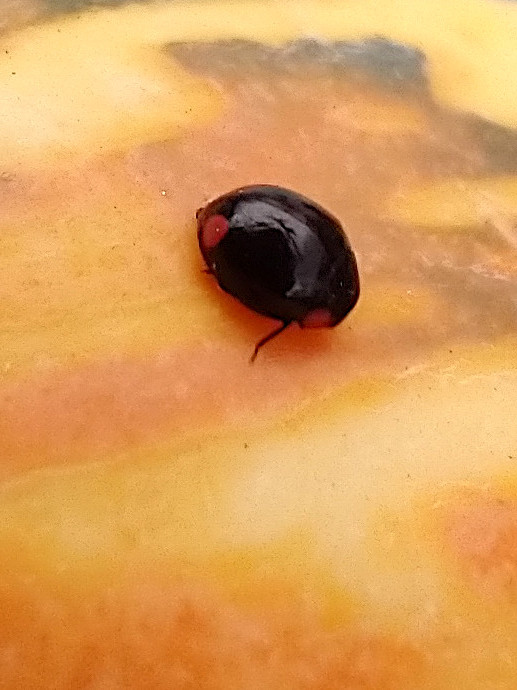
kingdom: Animalia
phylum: Arthropoda
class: Insecta
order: Coleoptera
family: Coccinellidae
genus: Hyperaspis
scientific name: Hyperaspis bigeminata
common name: Bigeminate sigil lady beetle
